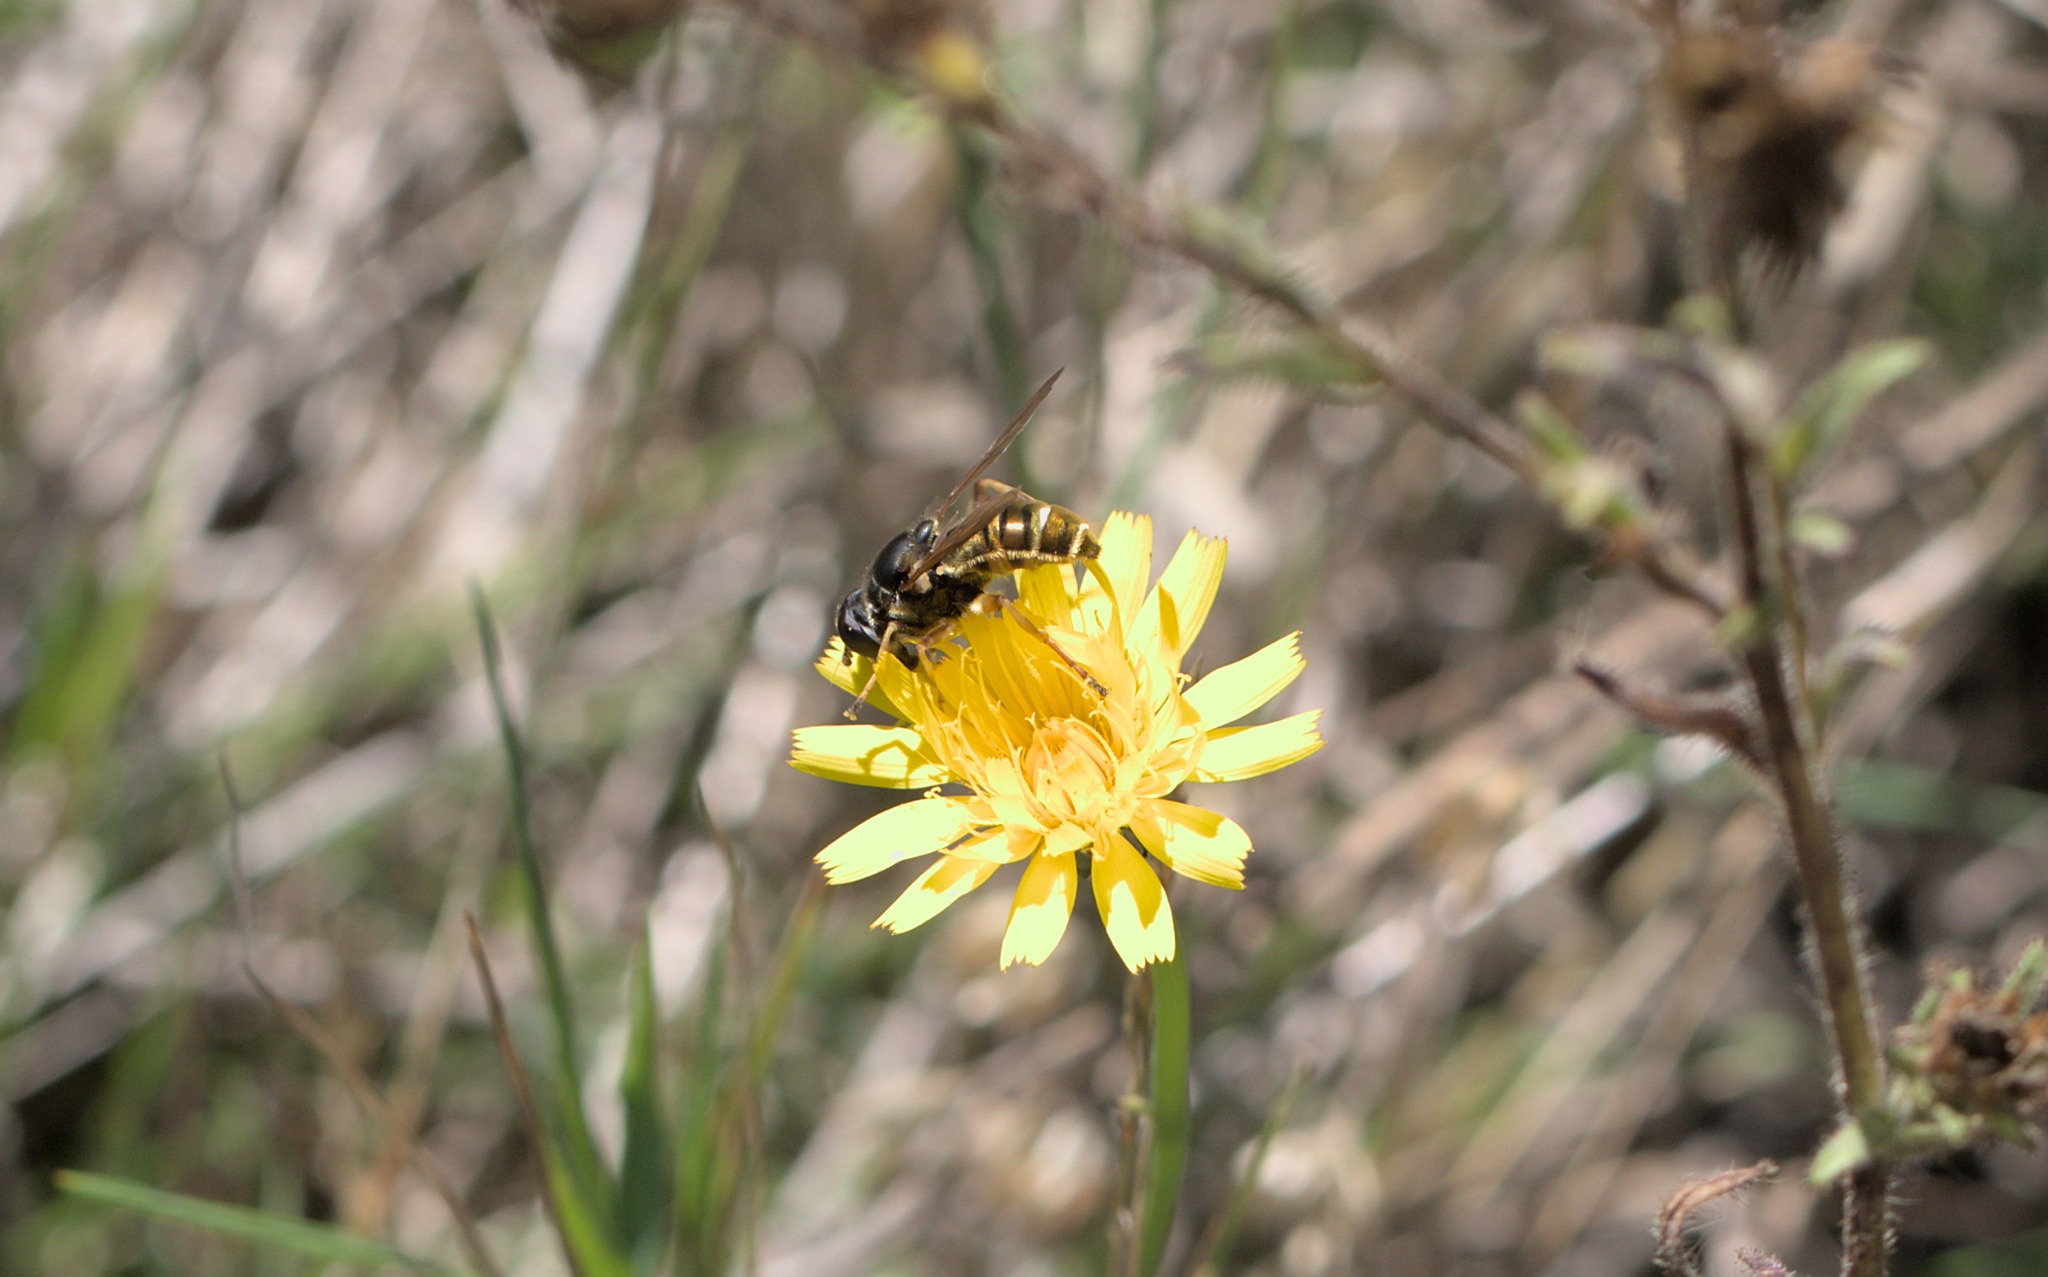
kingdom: Animalia
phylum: Arthropoda
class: Insecta
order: Diptera
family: Syrphidae
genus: Hadromyia
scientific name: Hadromyia pulchra
